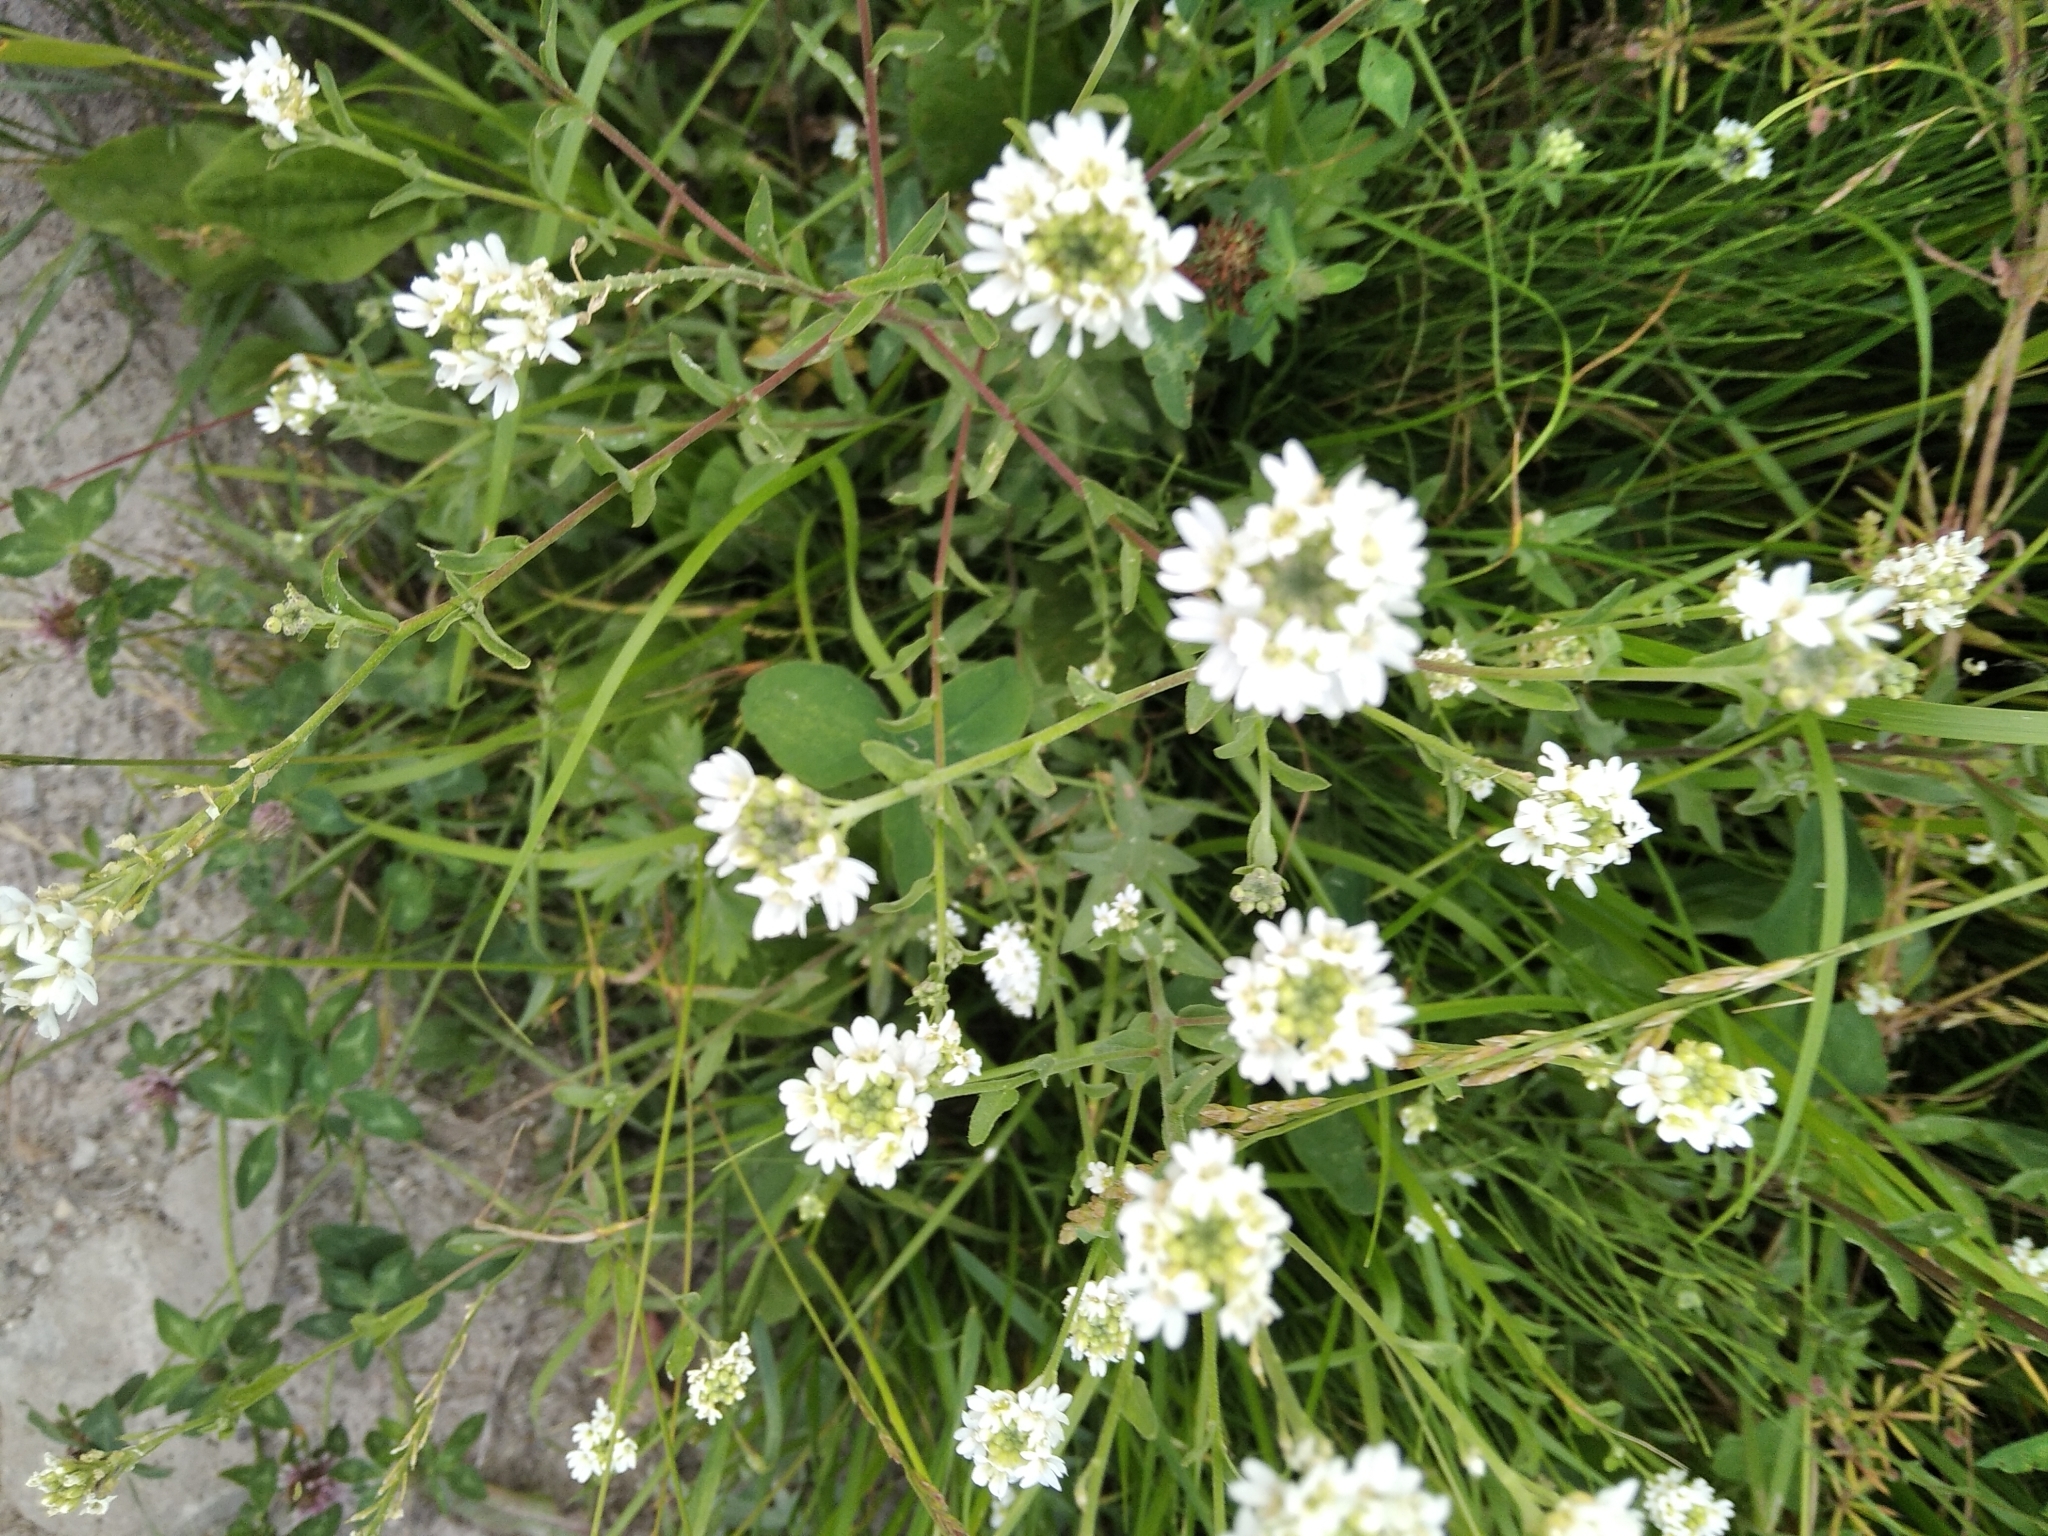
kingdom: Plantae
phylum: Tracheophyta
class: Magnoliopsida
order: Brassicales
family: Brassicaceae
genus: Berteroa
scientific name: Berteroa incana
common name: Hoary alison
